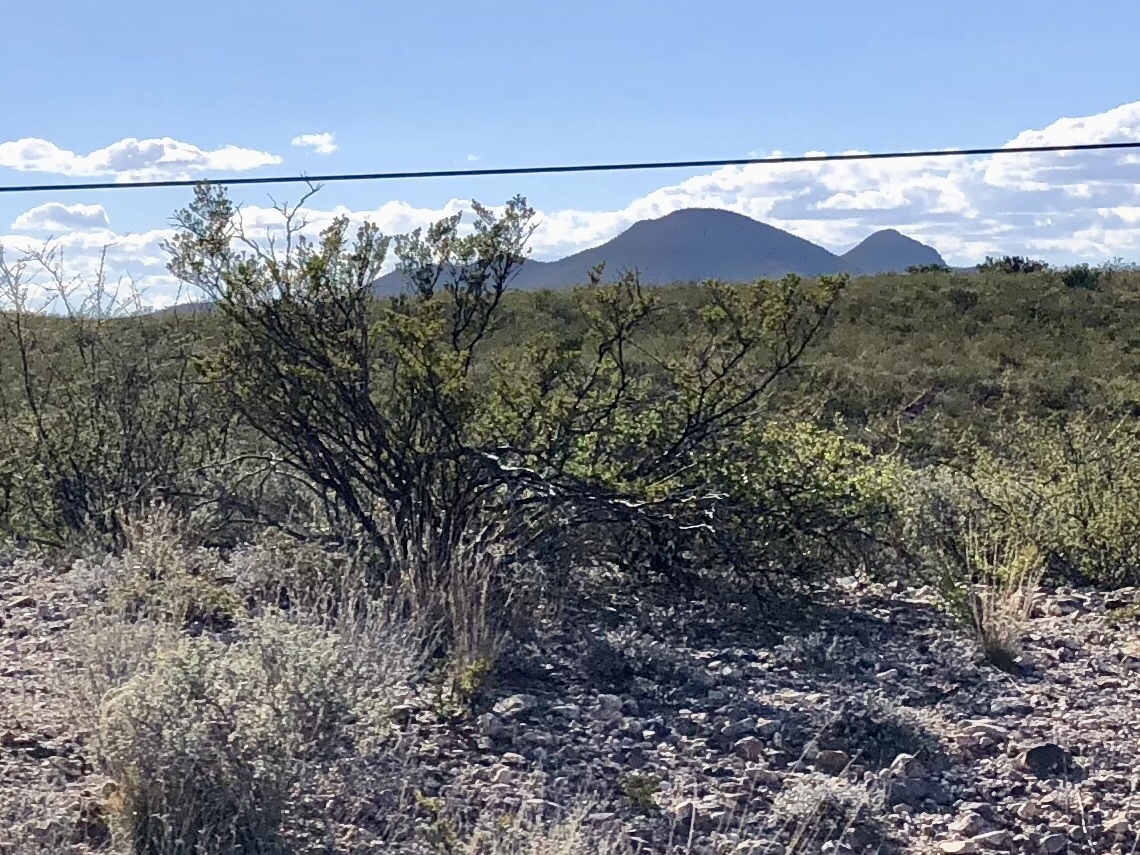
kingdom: Plantae
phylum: Tracheophyta
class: Magnoliopsida
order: Zygophyllales
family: Zygophyllaceae
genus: Larrea
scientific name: Larrea tridentata
